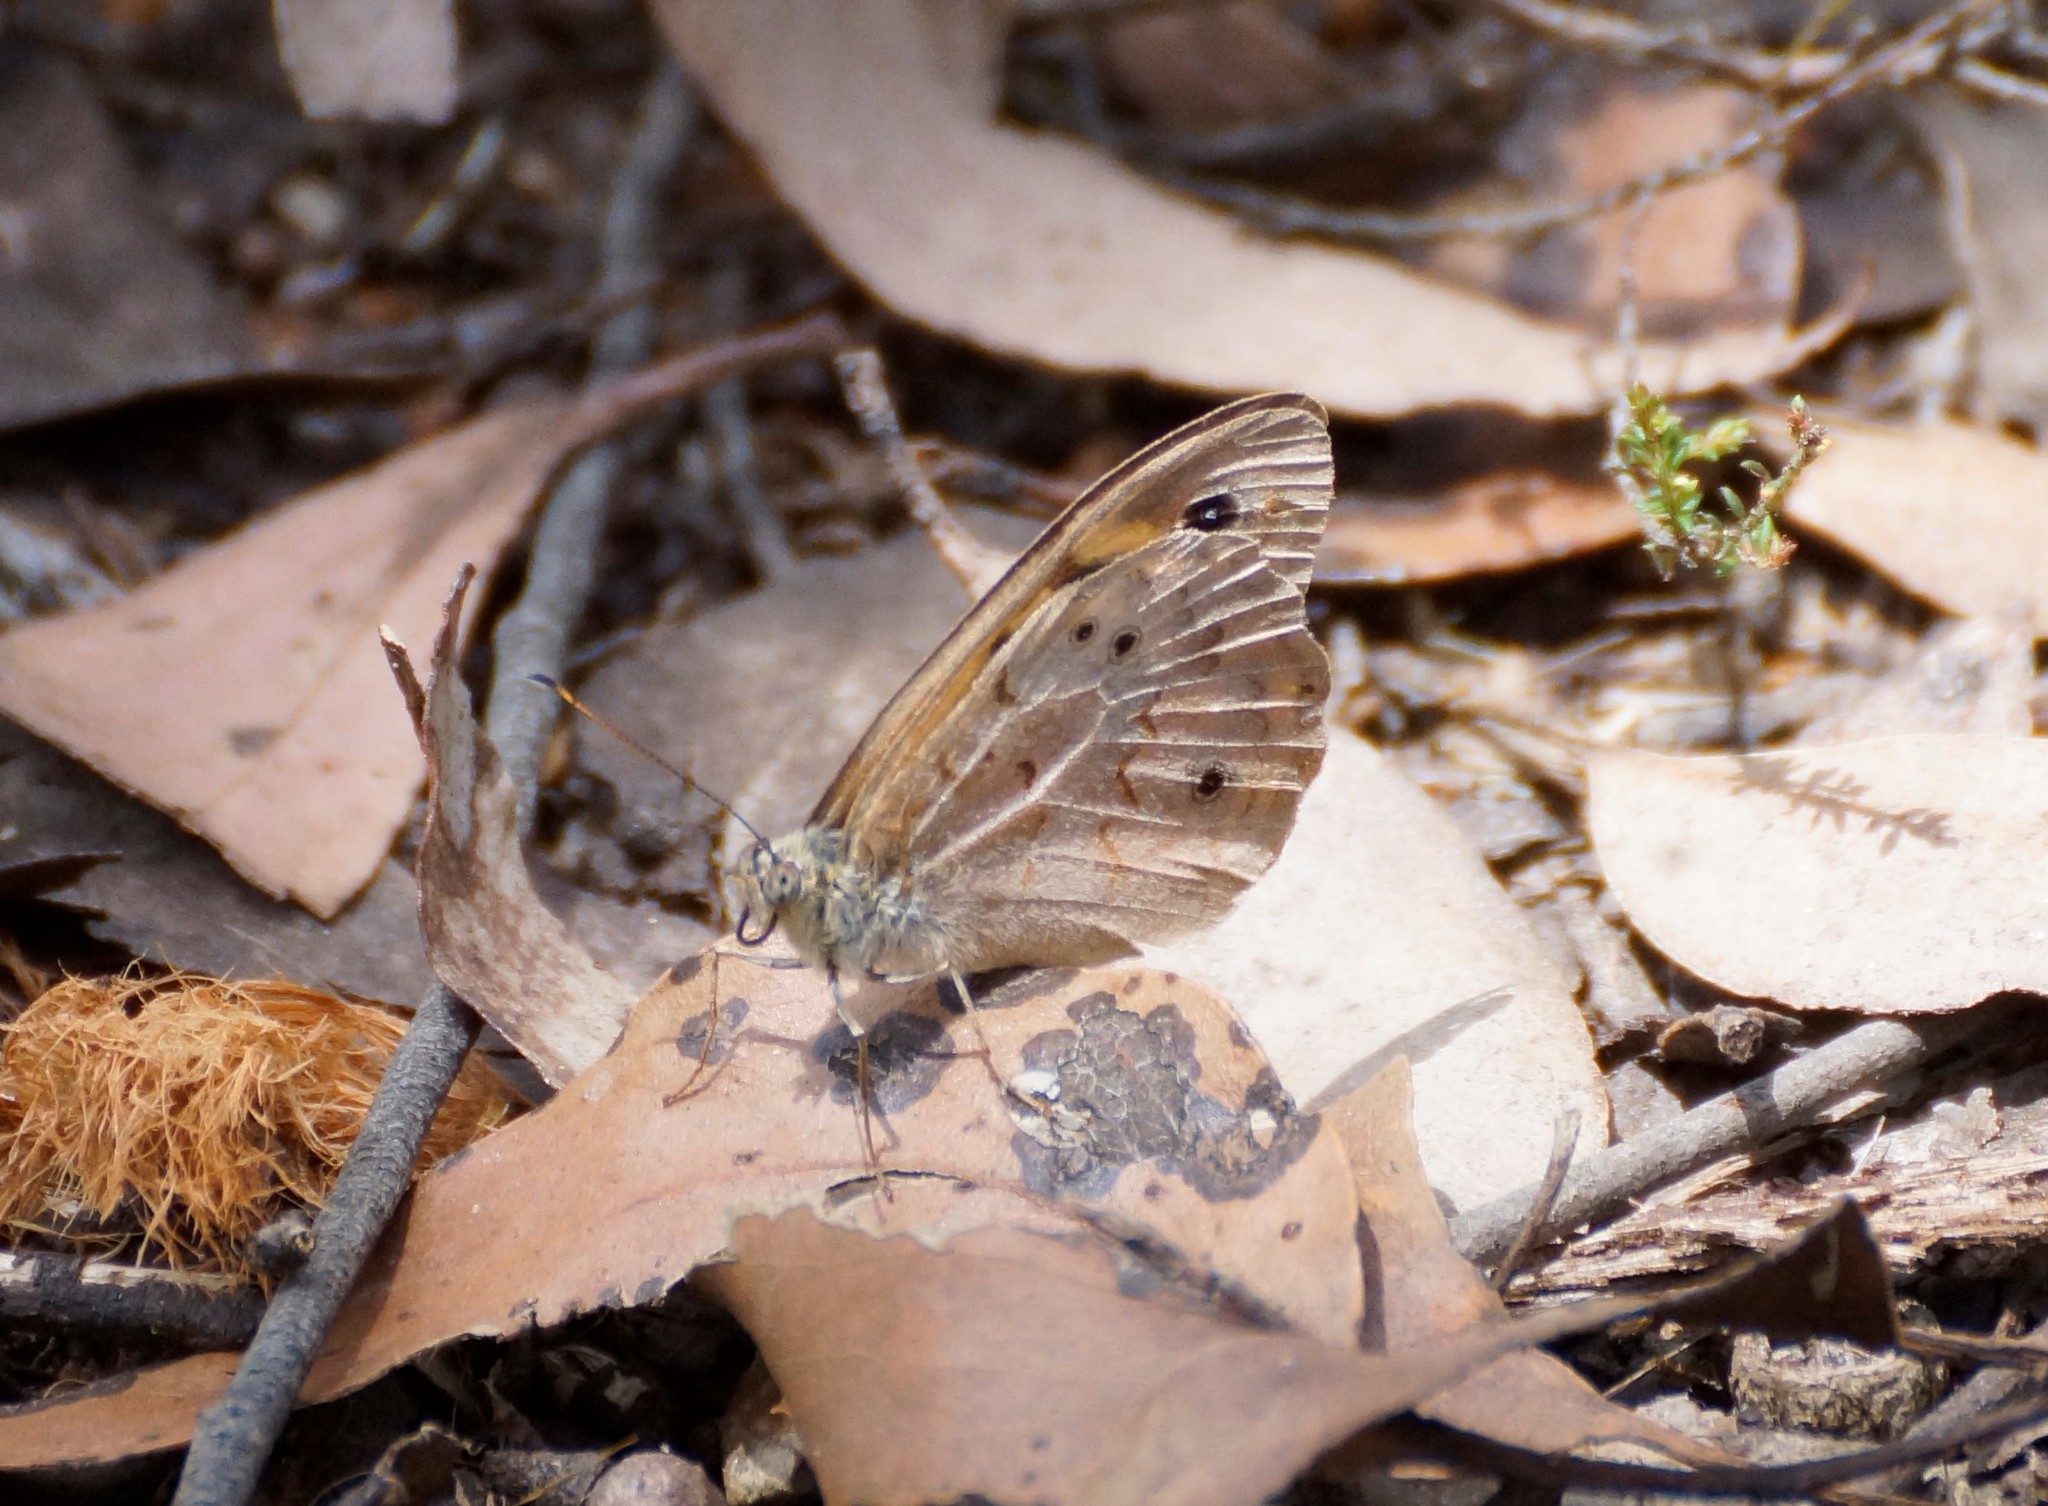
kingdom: Animalia
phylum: Arthropoda
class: Insecta
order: Lepidoptera
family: Nymphalidae
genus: Heteronympha
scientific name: Heteronympha merope
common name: Common brown
